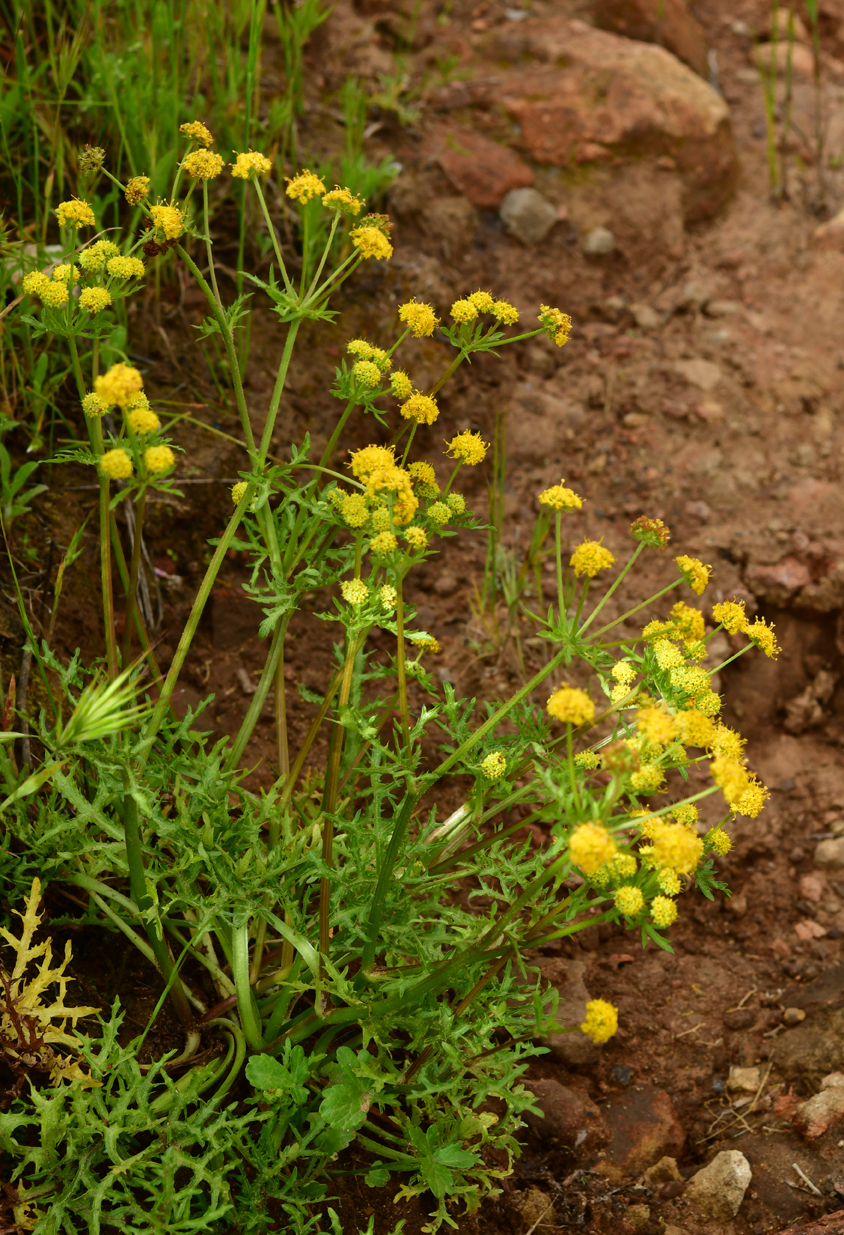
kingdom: Plantae
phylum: Tracheophyta
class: Magnoliopsida
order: Apiales
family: Apiaceae
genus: Sanicula
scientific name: Sanicula arguta
